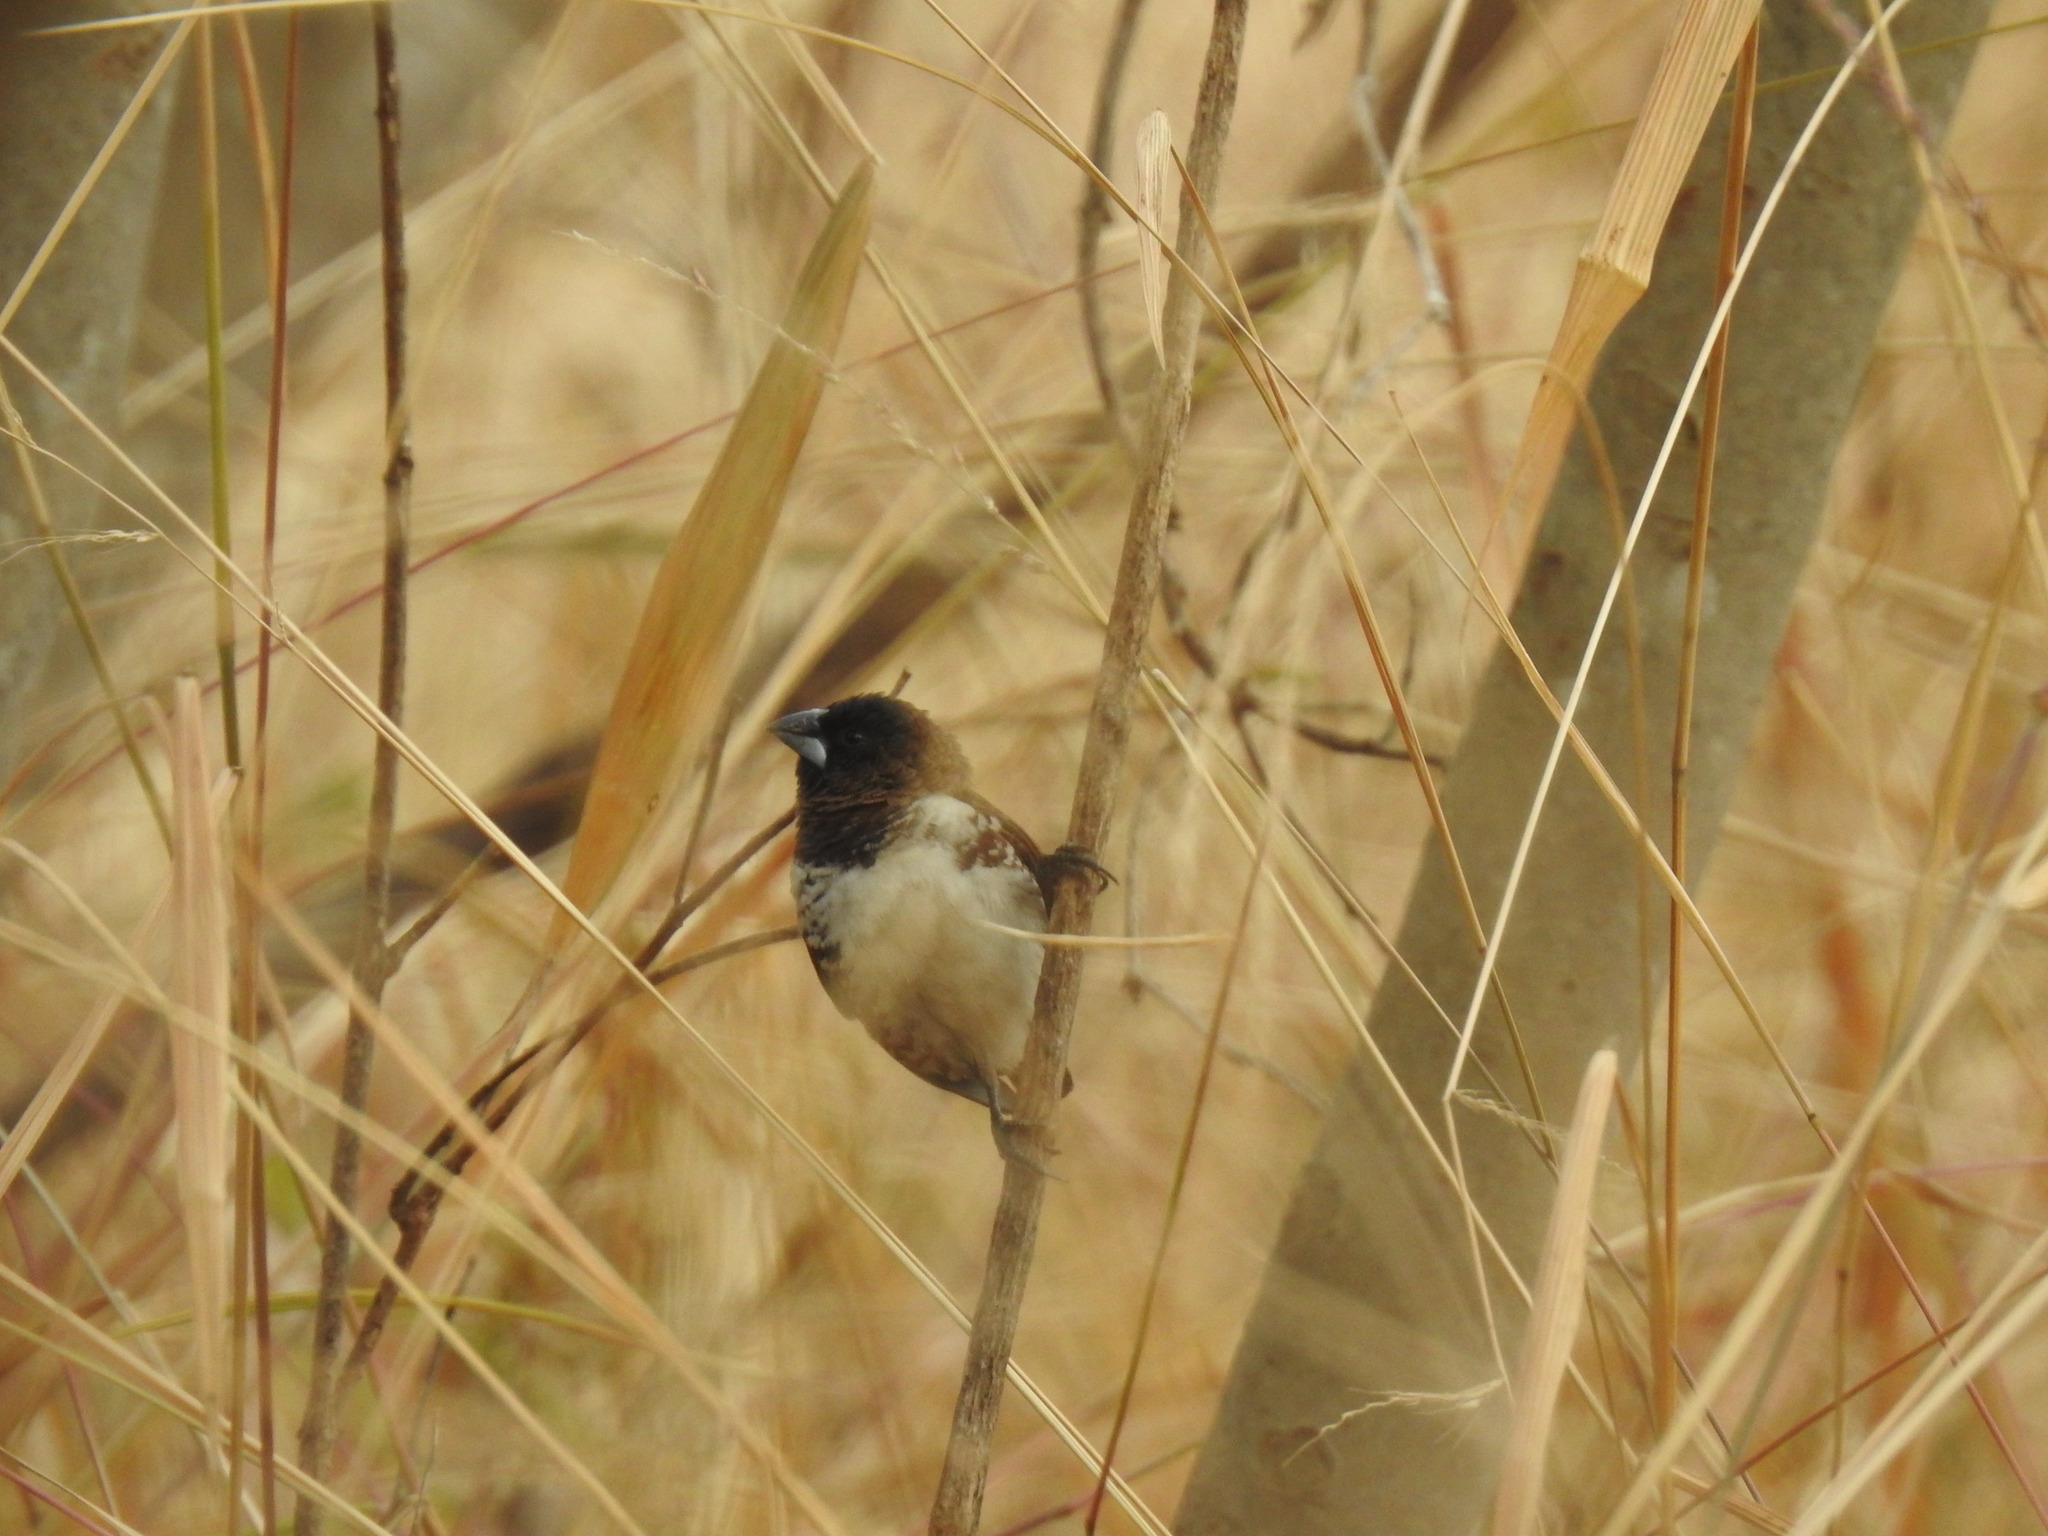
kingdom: Animalia
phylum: Chordata
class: Aves
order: Passeriformes
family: Estrildidae
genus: Lonchura
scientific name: Lonchura cucullata
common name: Bronze mannikin
